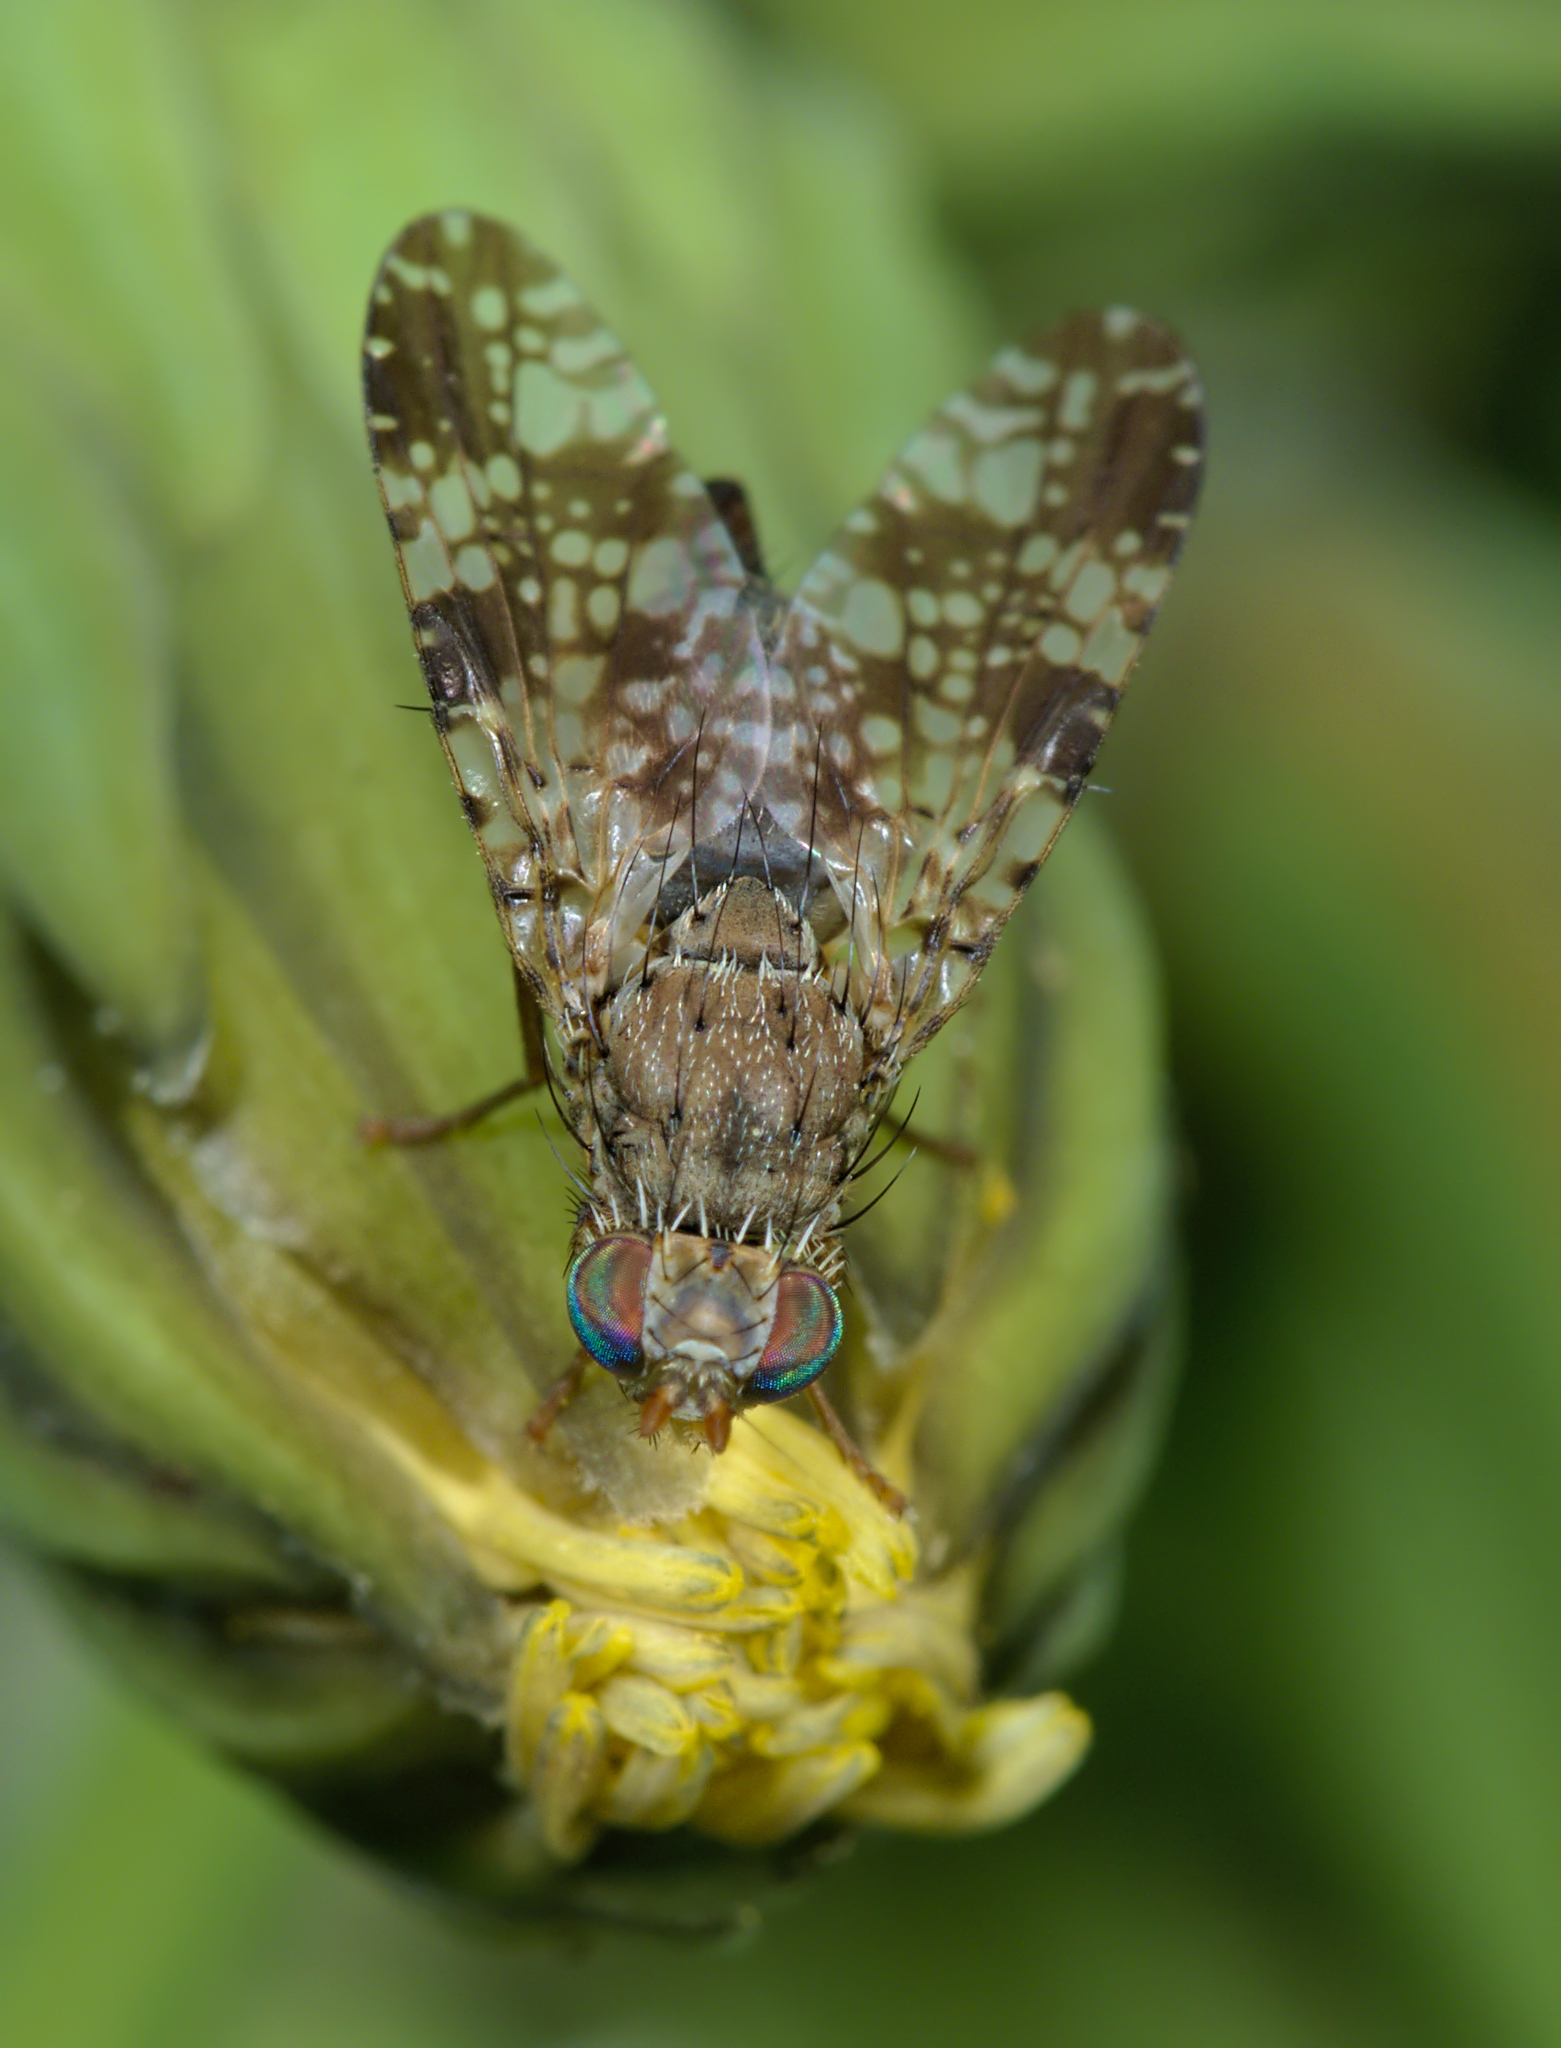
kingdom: Animalia
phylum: Arthropoda
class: Insecta
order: Diptera
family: Tephritidae
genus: Tephritis
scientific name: Tephritis vespertina
